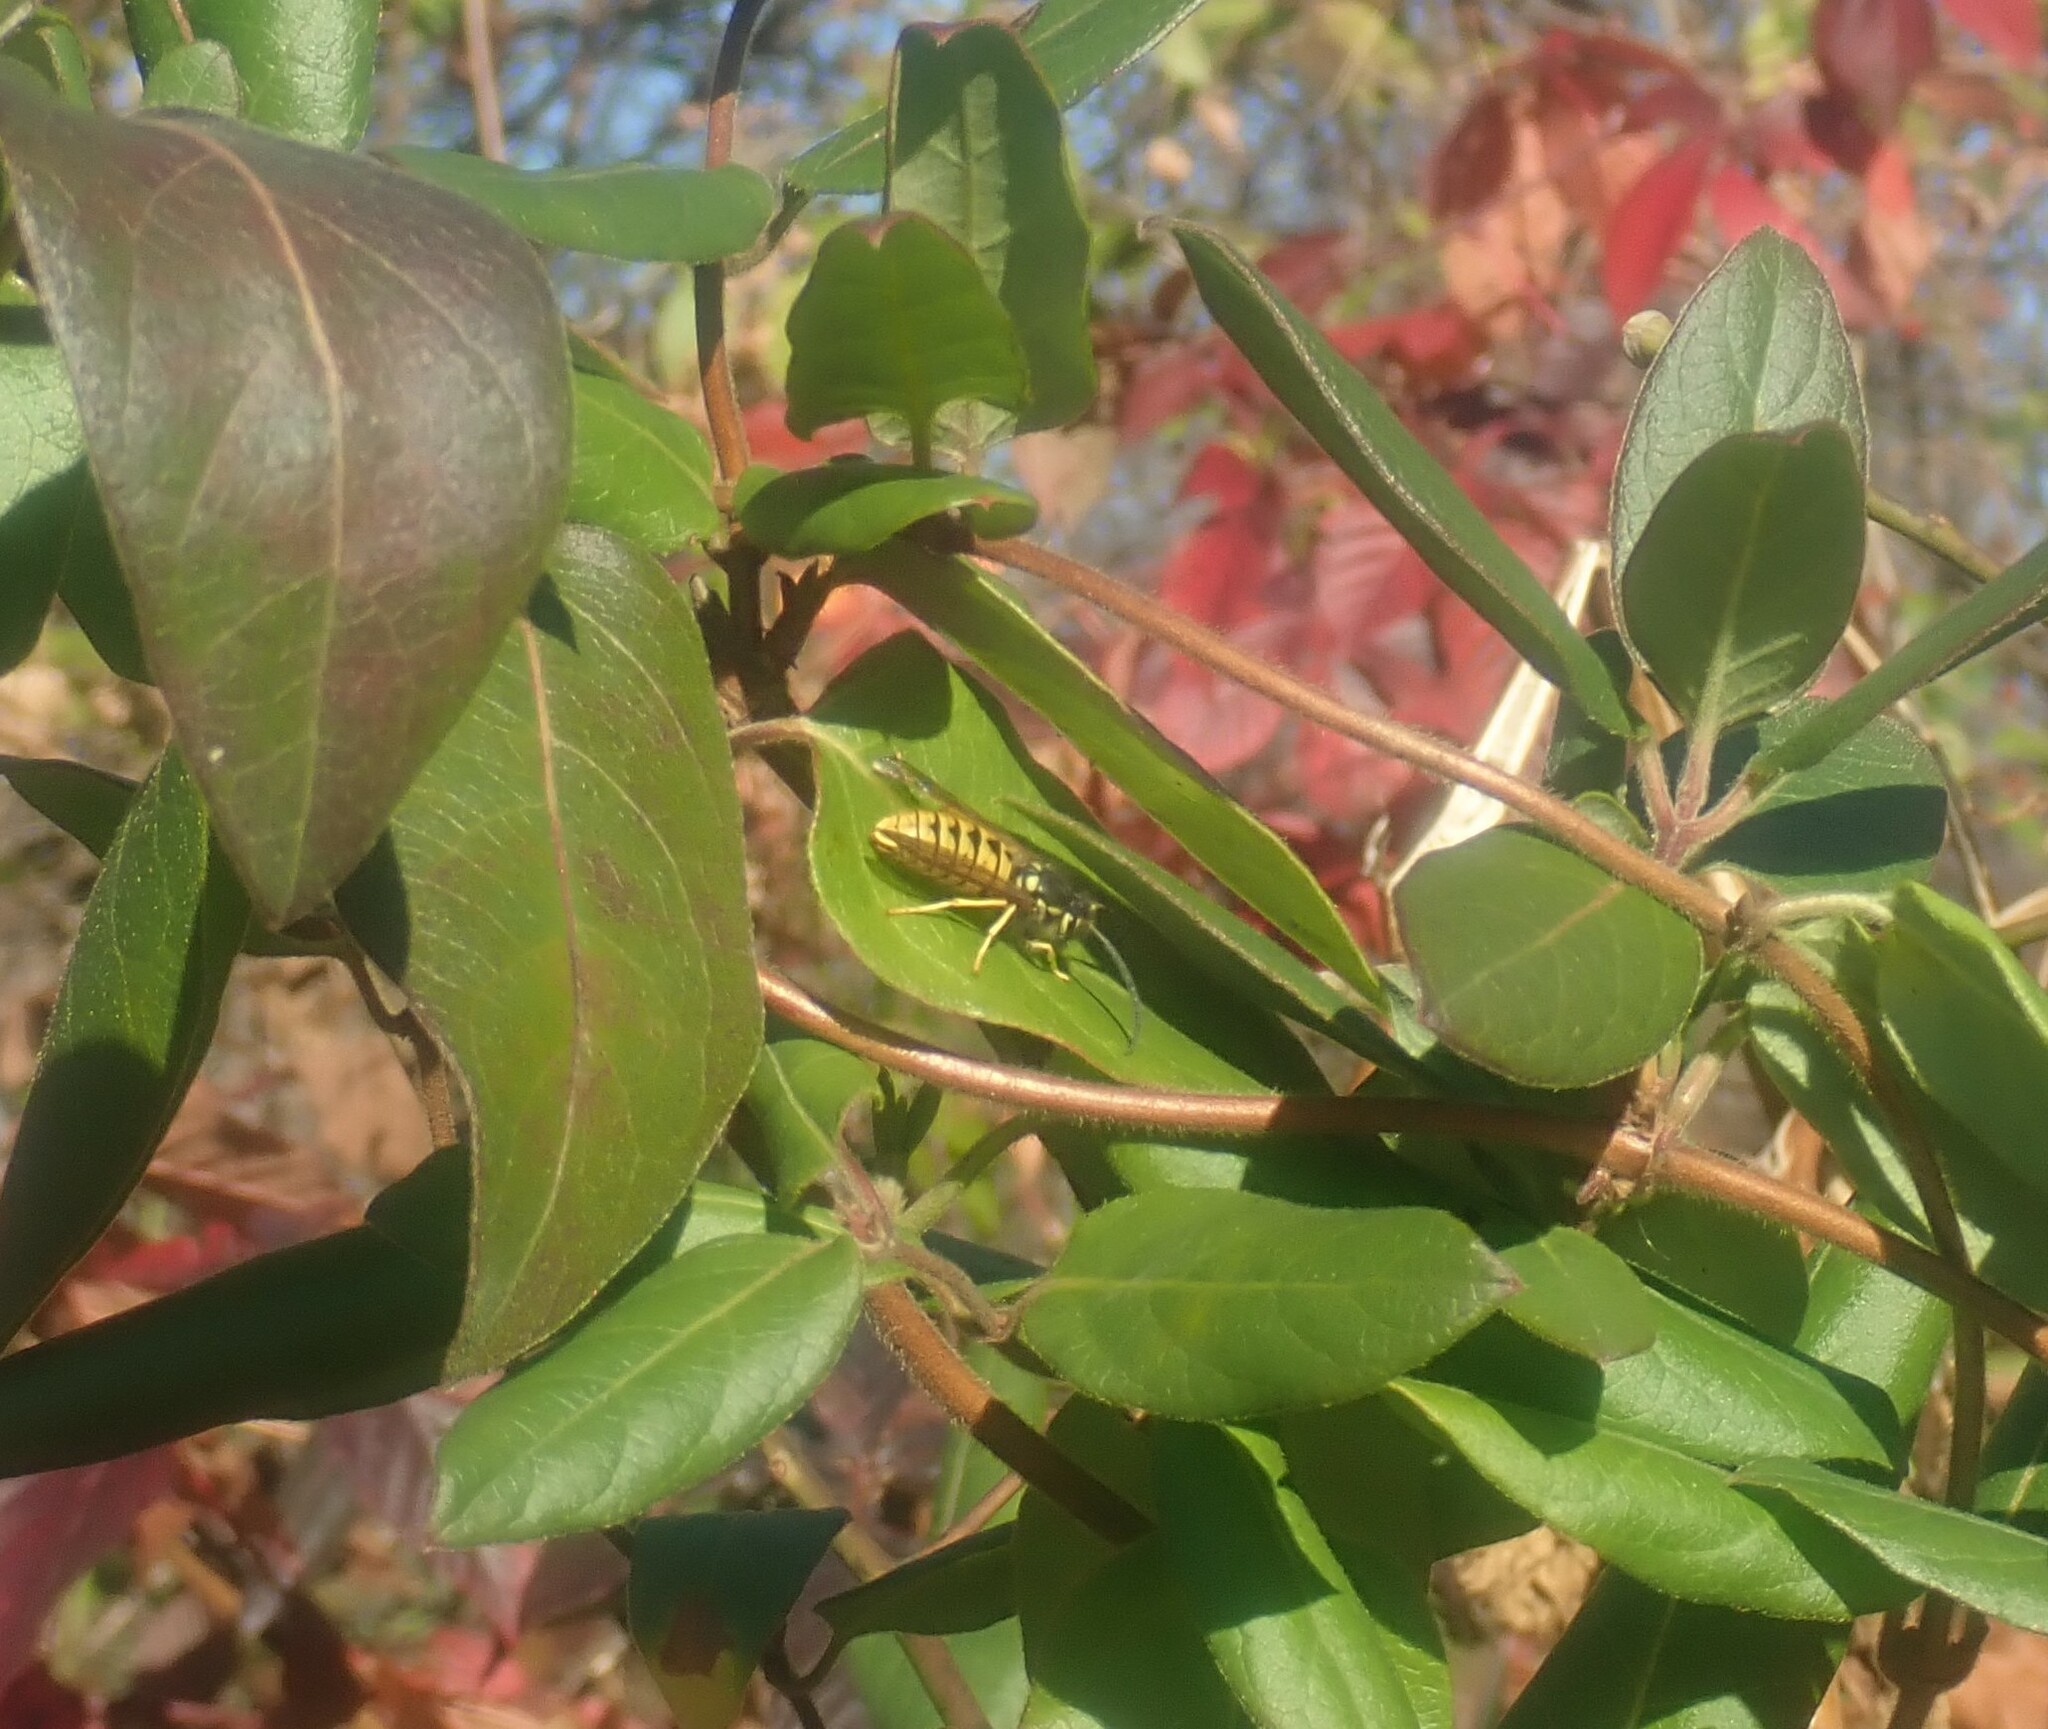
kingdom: Animalia
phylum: Arthropoda
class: Insecta
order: Hymenoptera
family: Vespidae
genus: Vespula
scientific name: Vespula germanica
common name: German wasp
